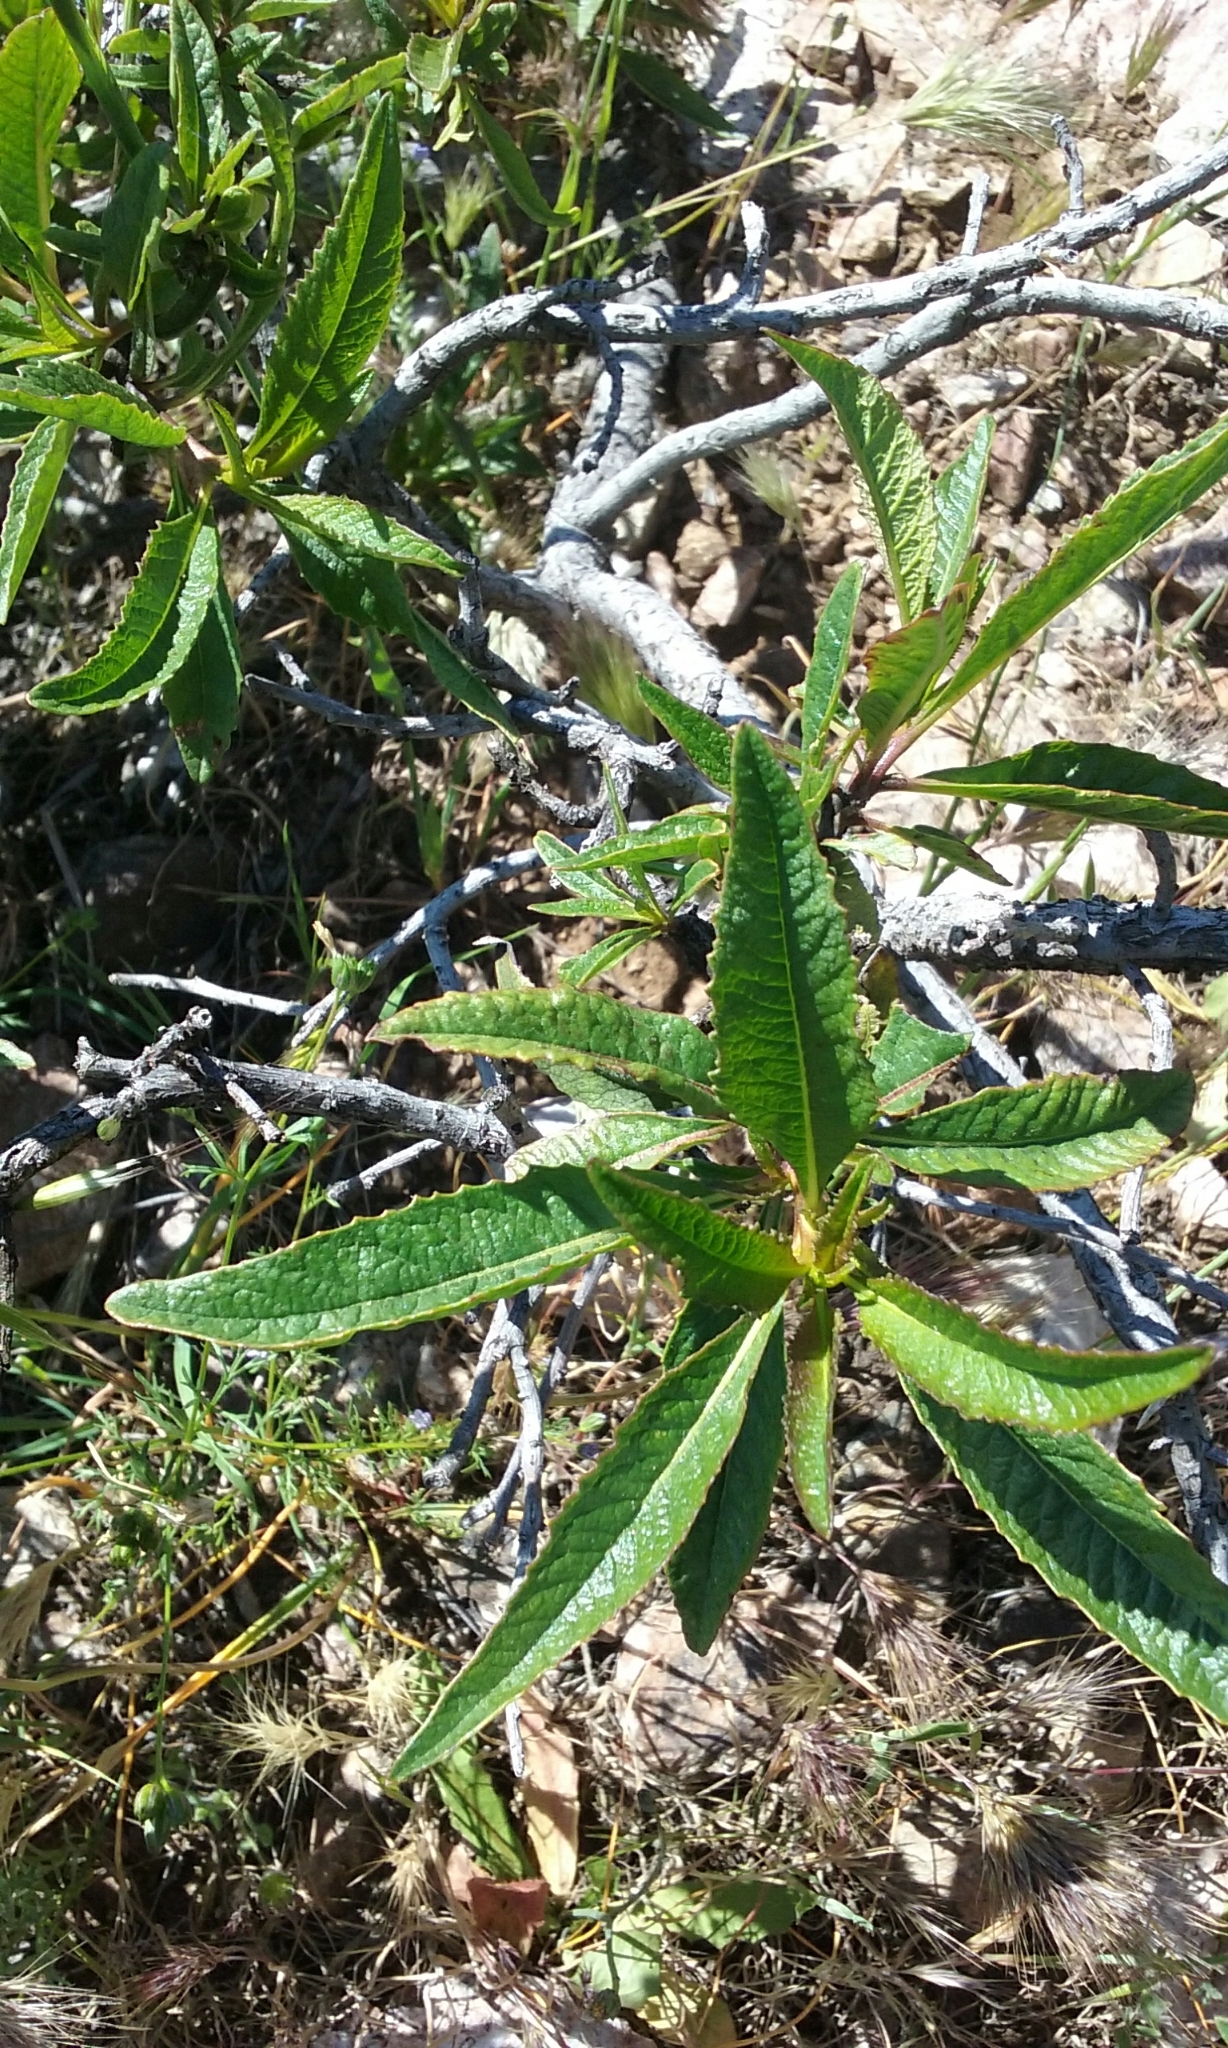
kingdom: Plantae
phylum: Tracheophyta
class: Magnoliopsida
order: Boraginales
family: Namaceae
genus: Eriodictyon
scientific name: Eriodictyon californicum
